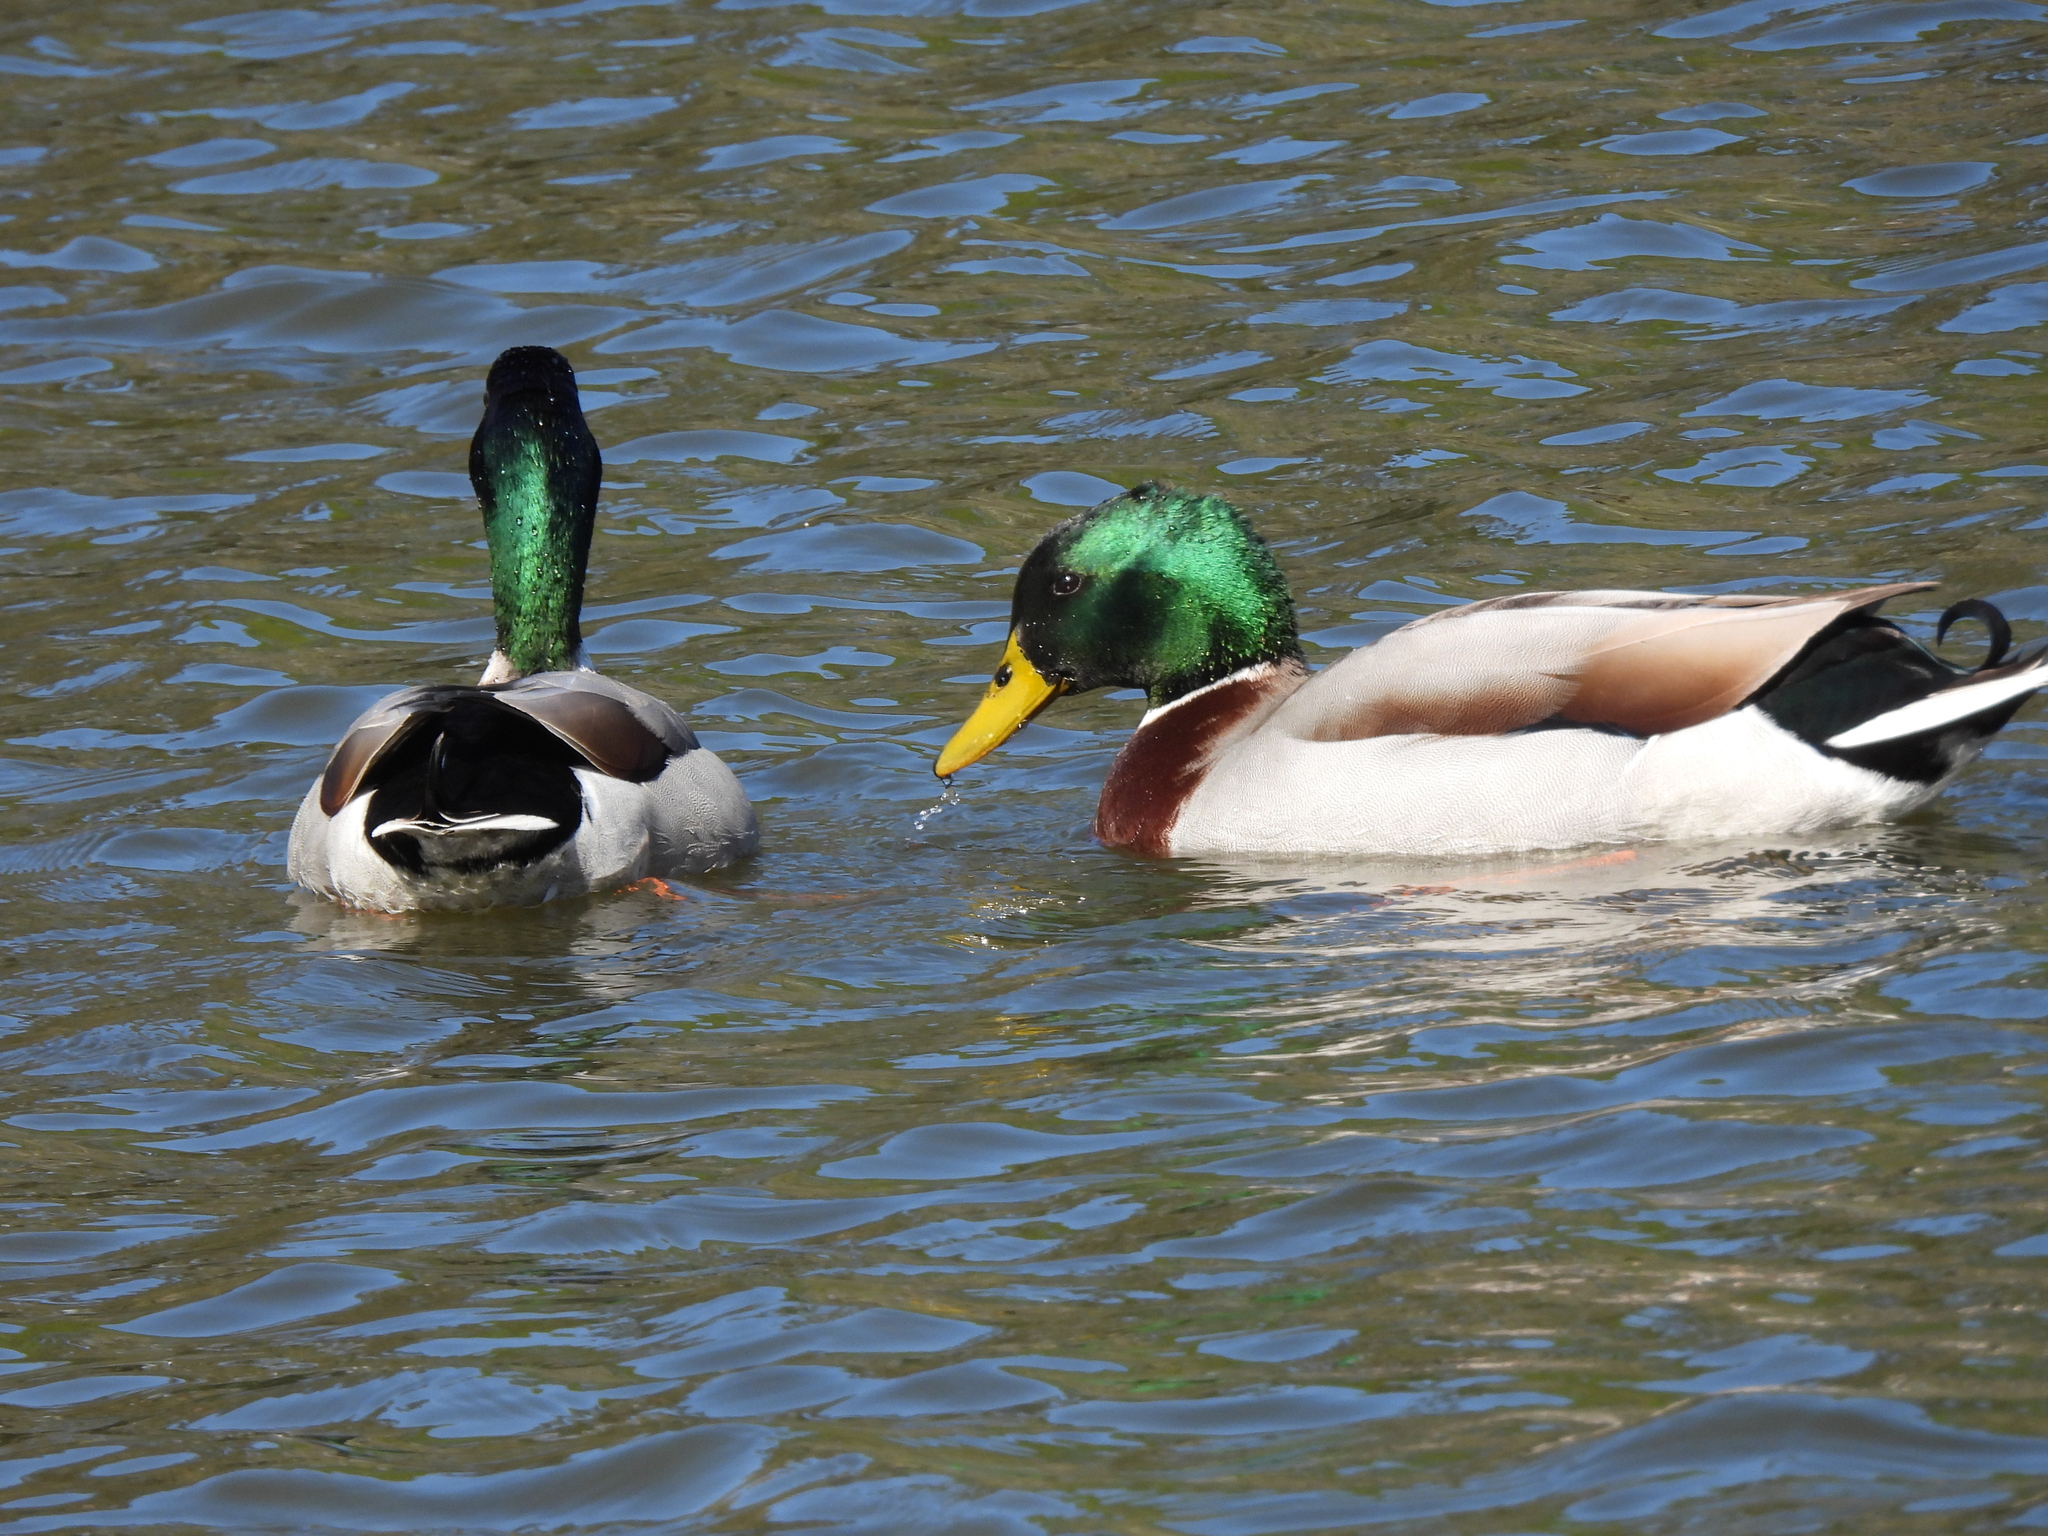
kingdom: Animalia
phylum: Chordata
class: Aves
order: Anseriformes
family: Anatidae
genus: Anas
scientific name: Anas platyrhynchos
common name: Mallard
